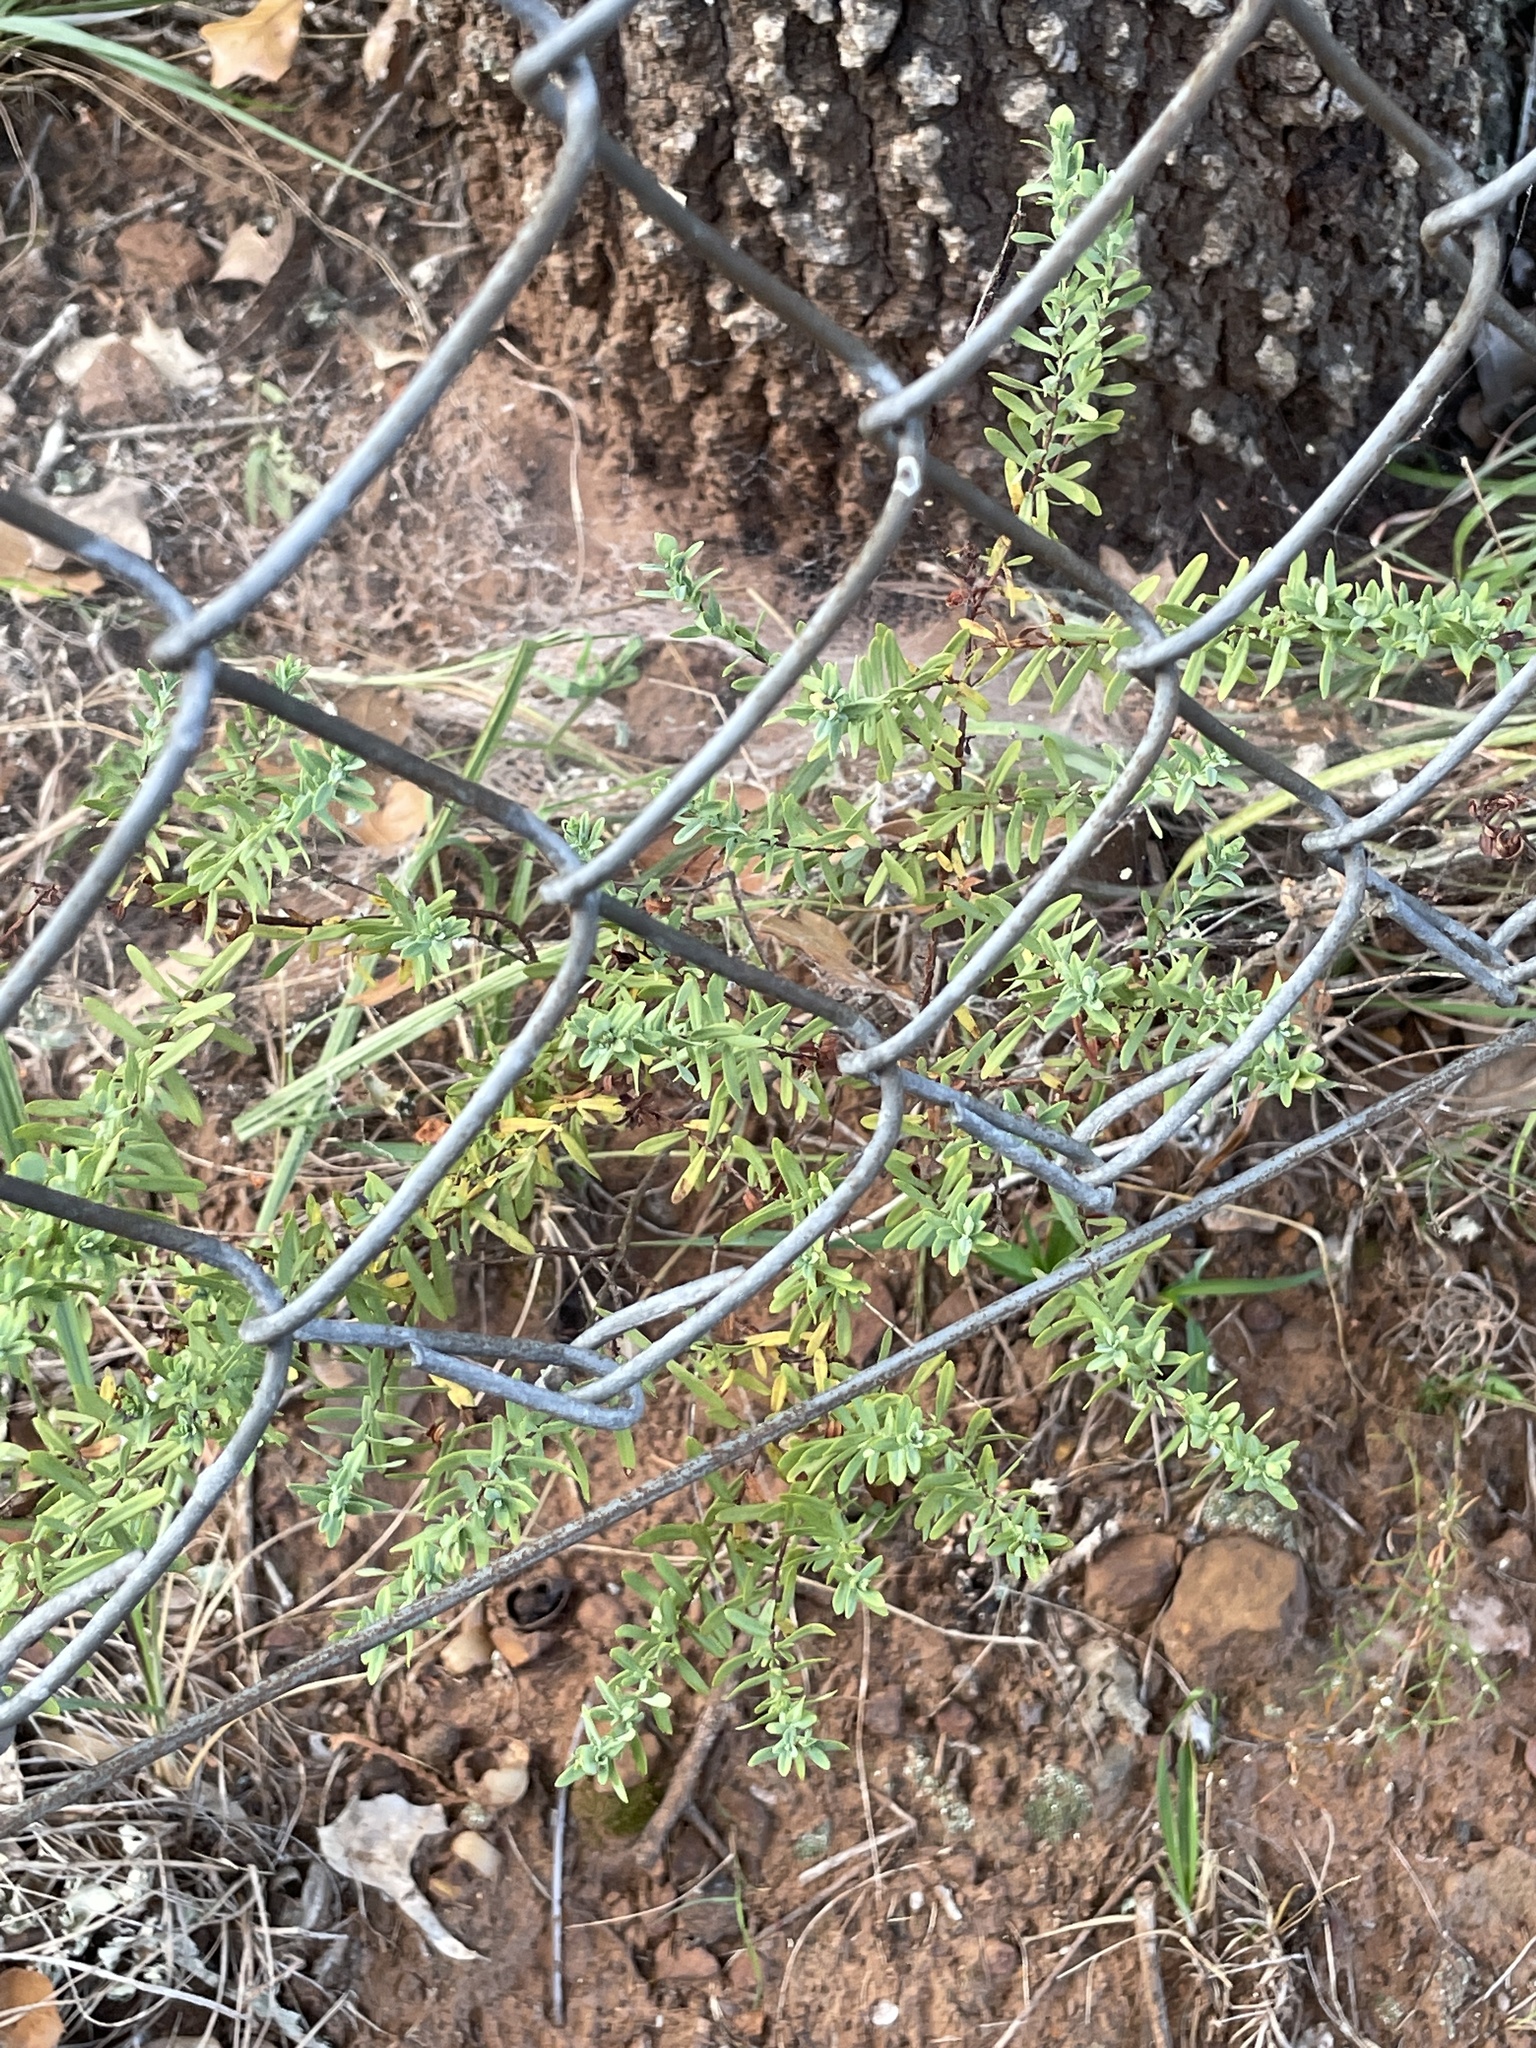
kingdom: Plantae
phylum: Tracheophyta
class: Magnoliopsida
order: Malpighiales
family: Hypericaceae
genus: Hypericum
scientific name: Hypericum hypericoides
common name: St. andrew's cross
